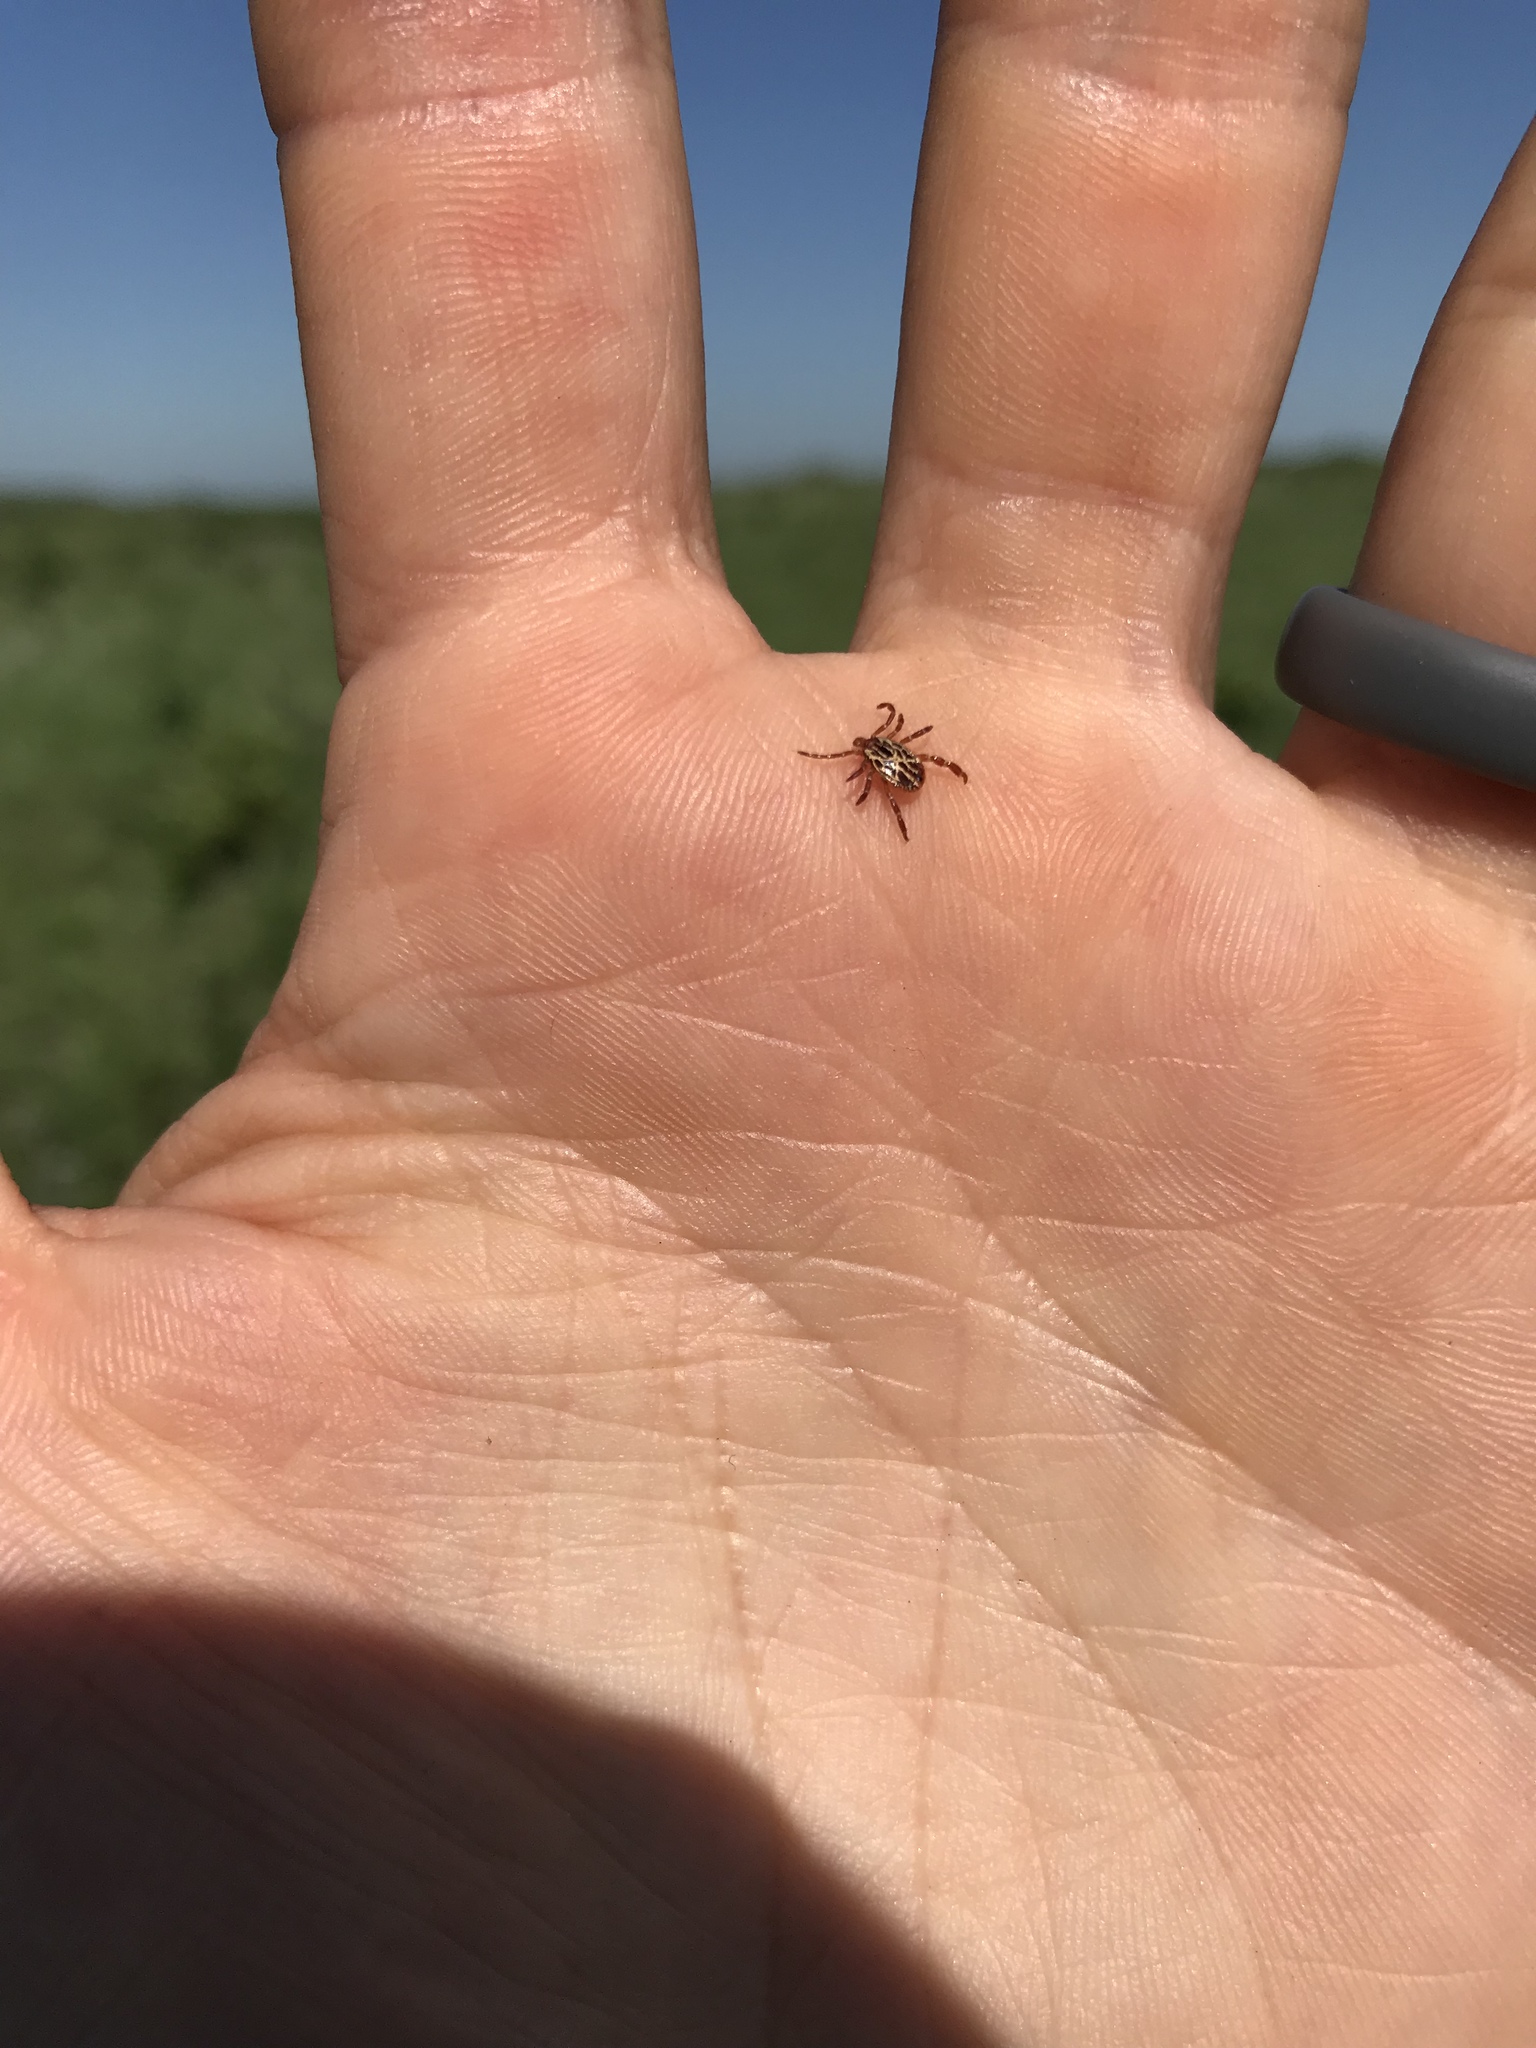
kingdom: Animalia
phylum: Arthropoda
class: Arachnida
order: Ixodida
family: Ixodidae
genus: Amblyomma
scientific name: Amblyomma maculatum
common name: Gulf coast tick
